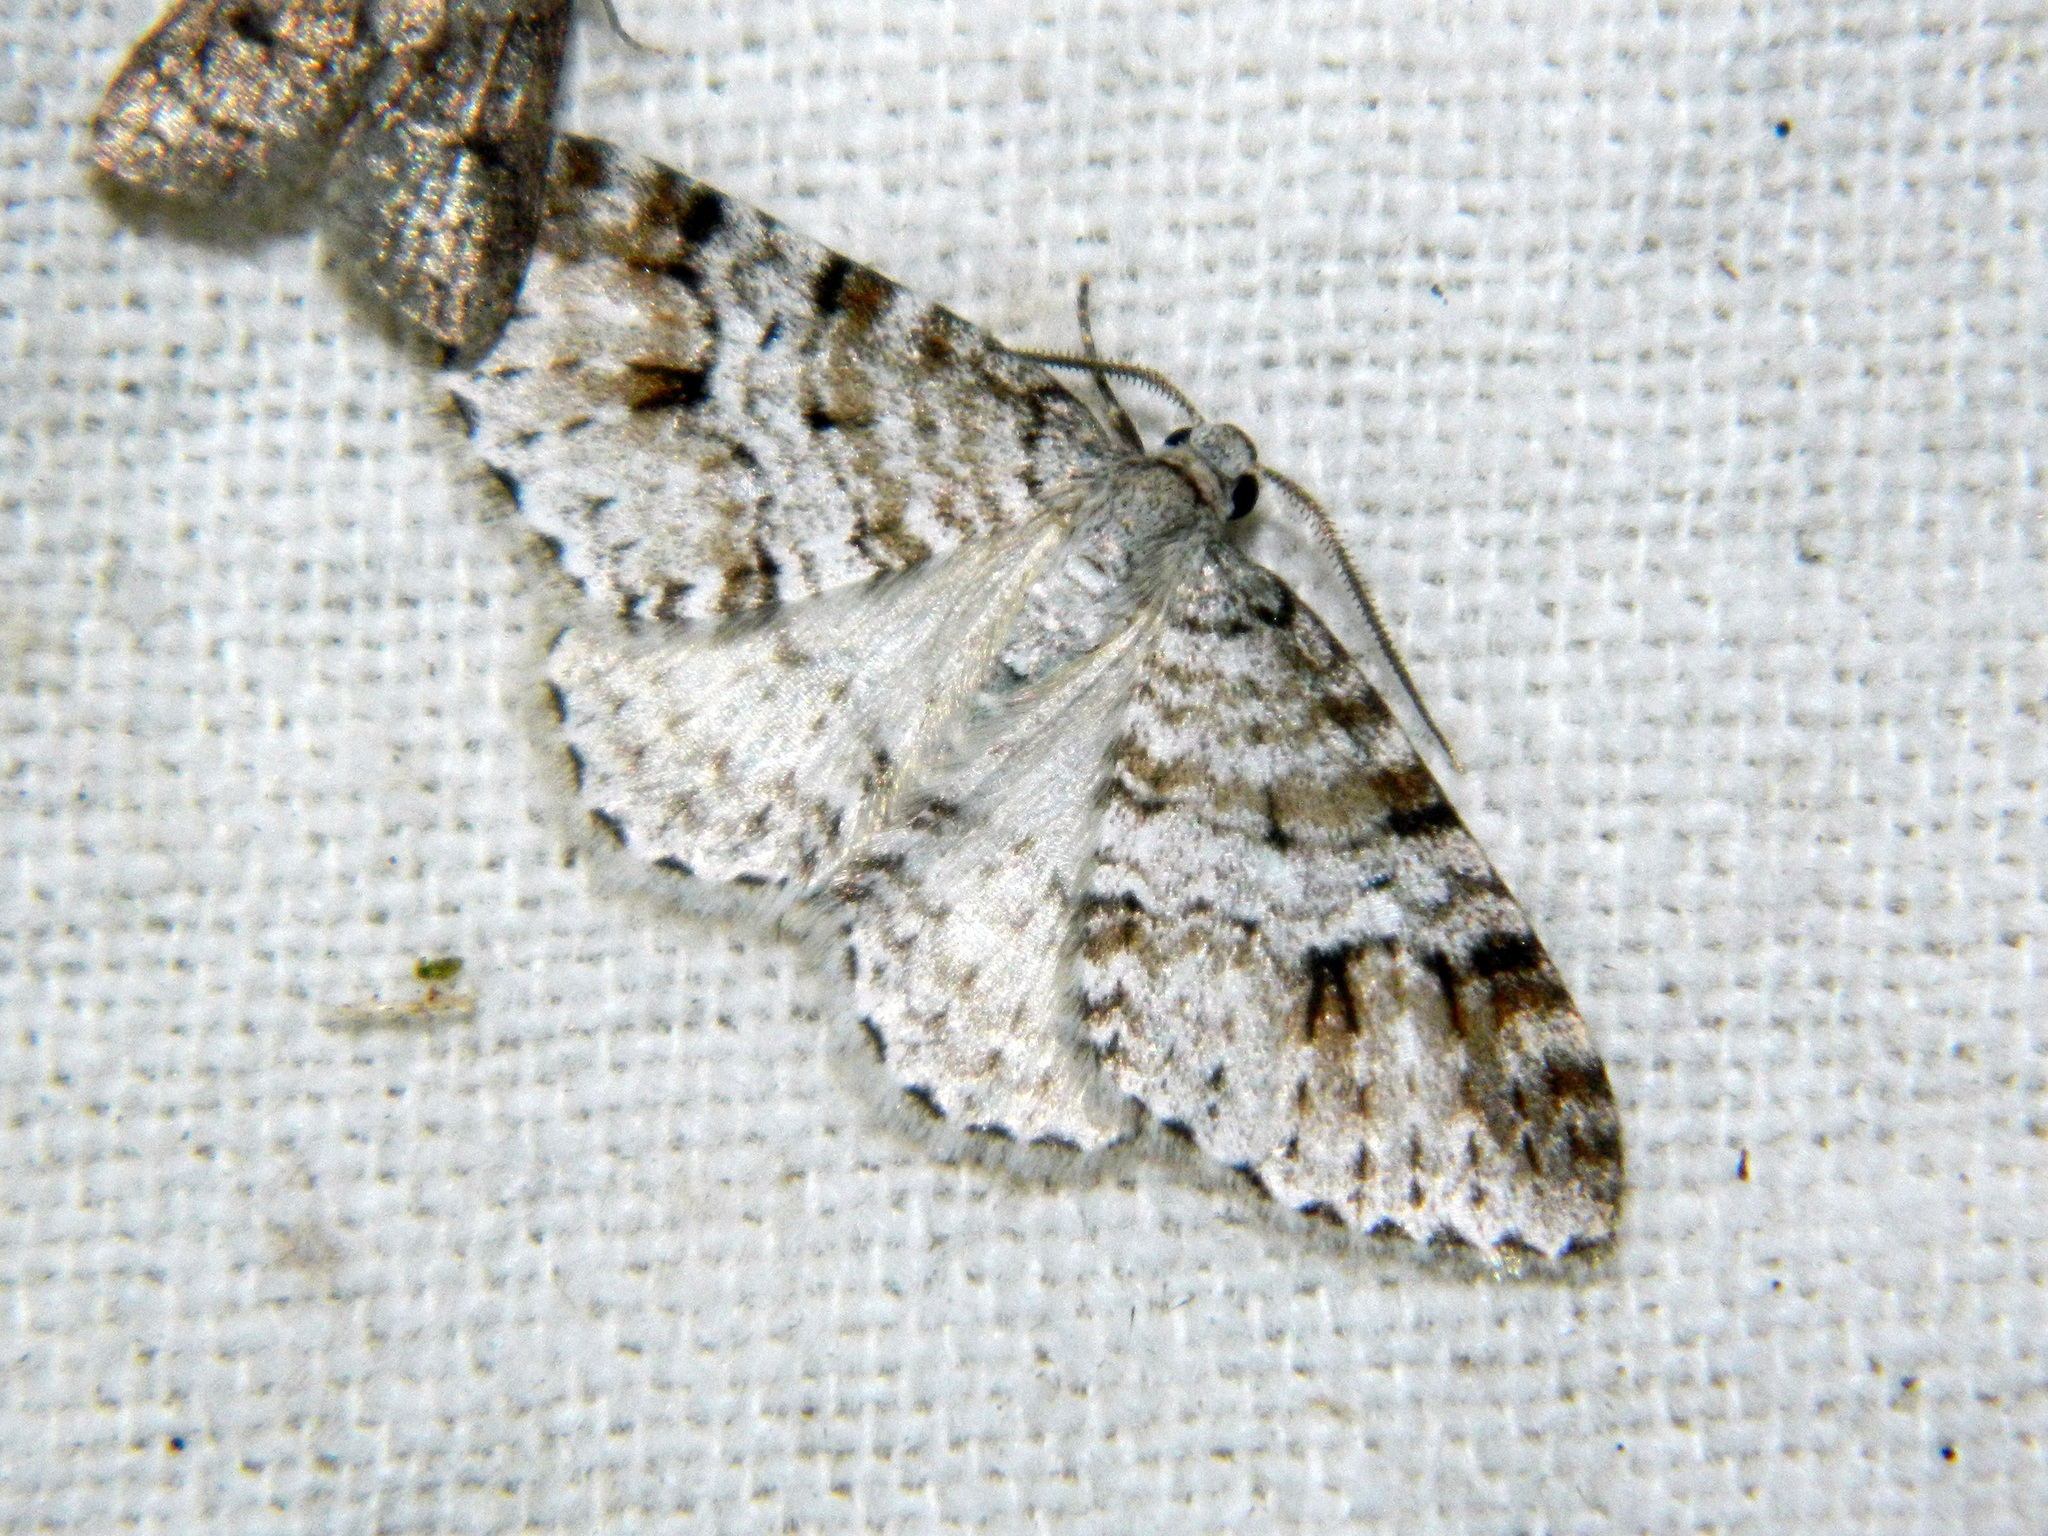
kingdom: Animalia
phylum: Arthropoda
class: Insecta
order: Lepidoptera
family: Geometridae
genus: Venusia
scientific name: Venusia cambrica
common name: Welsh wave
